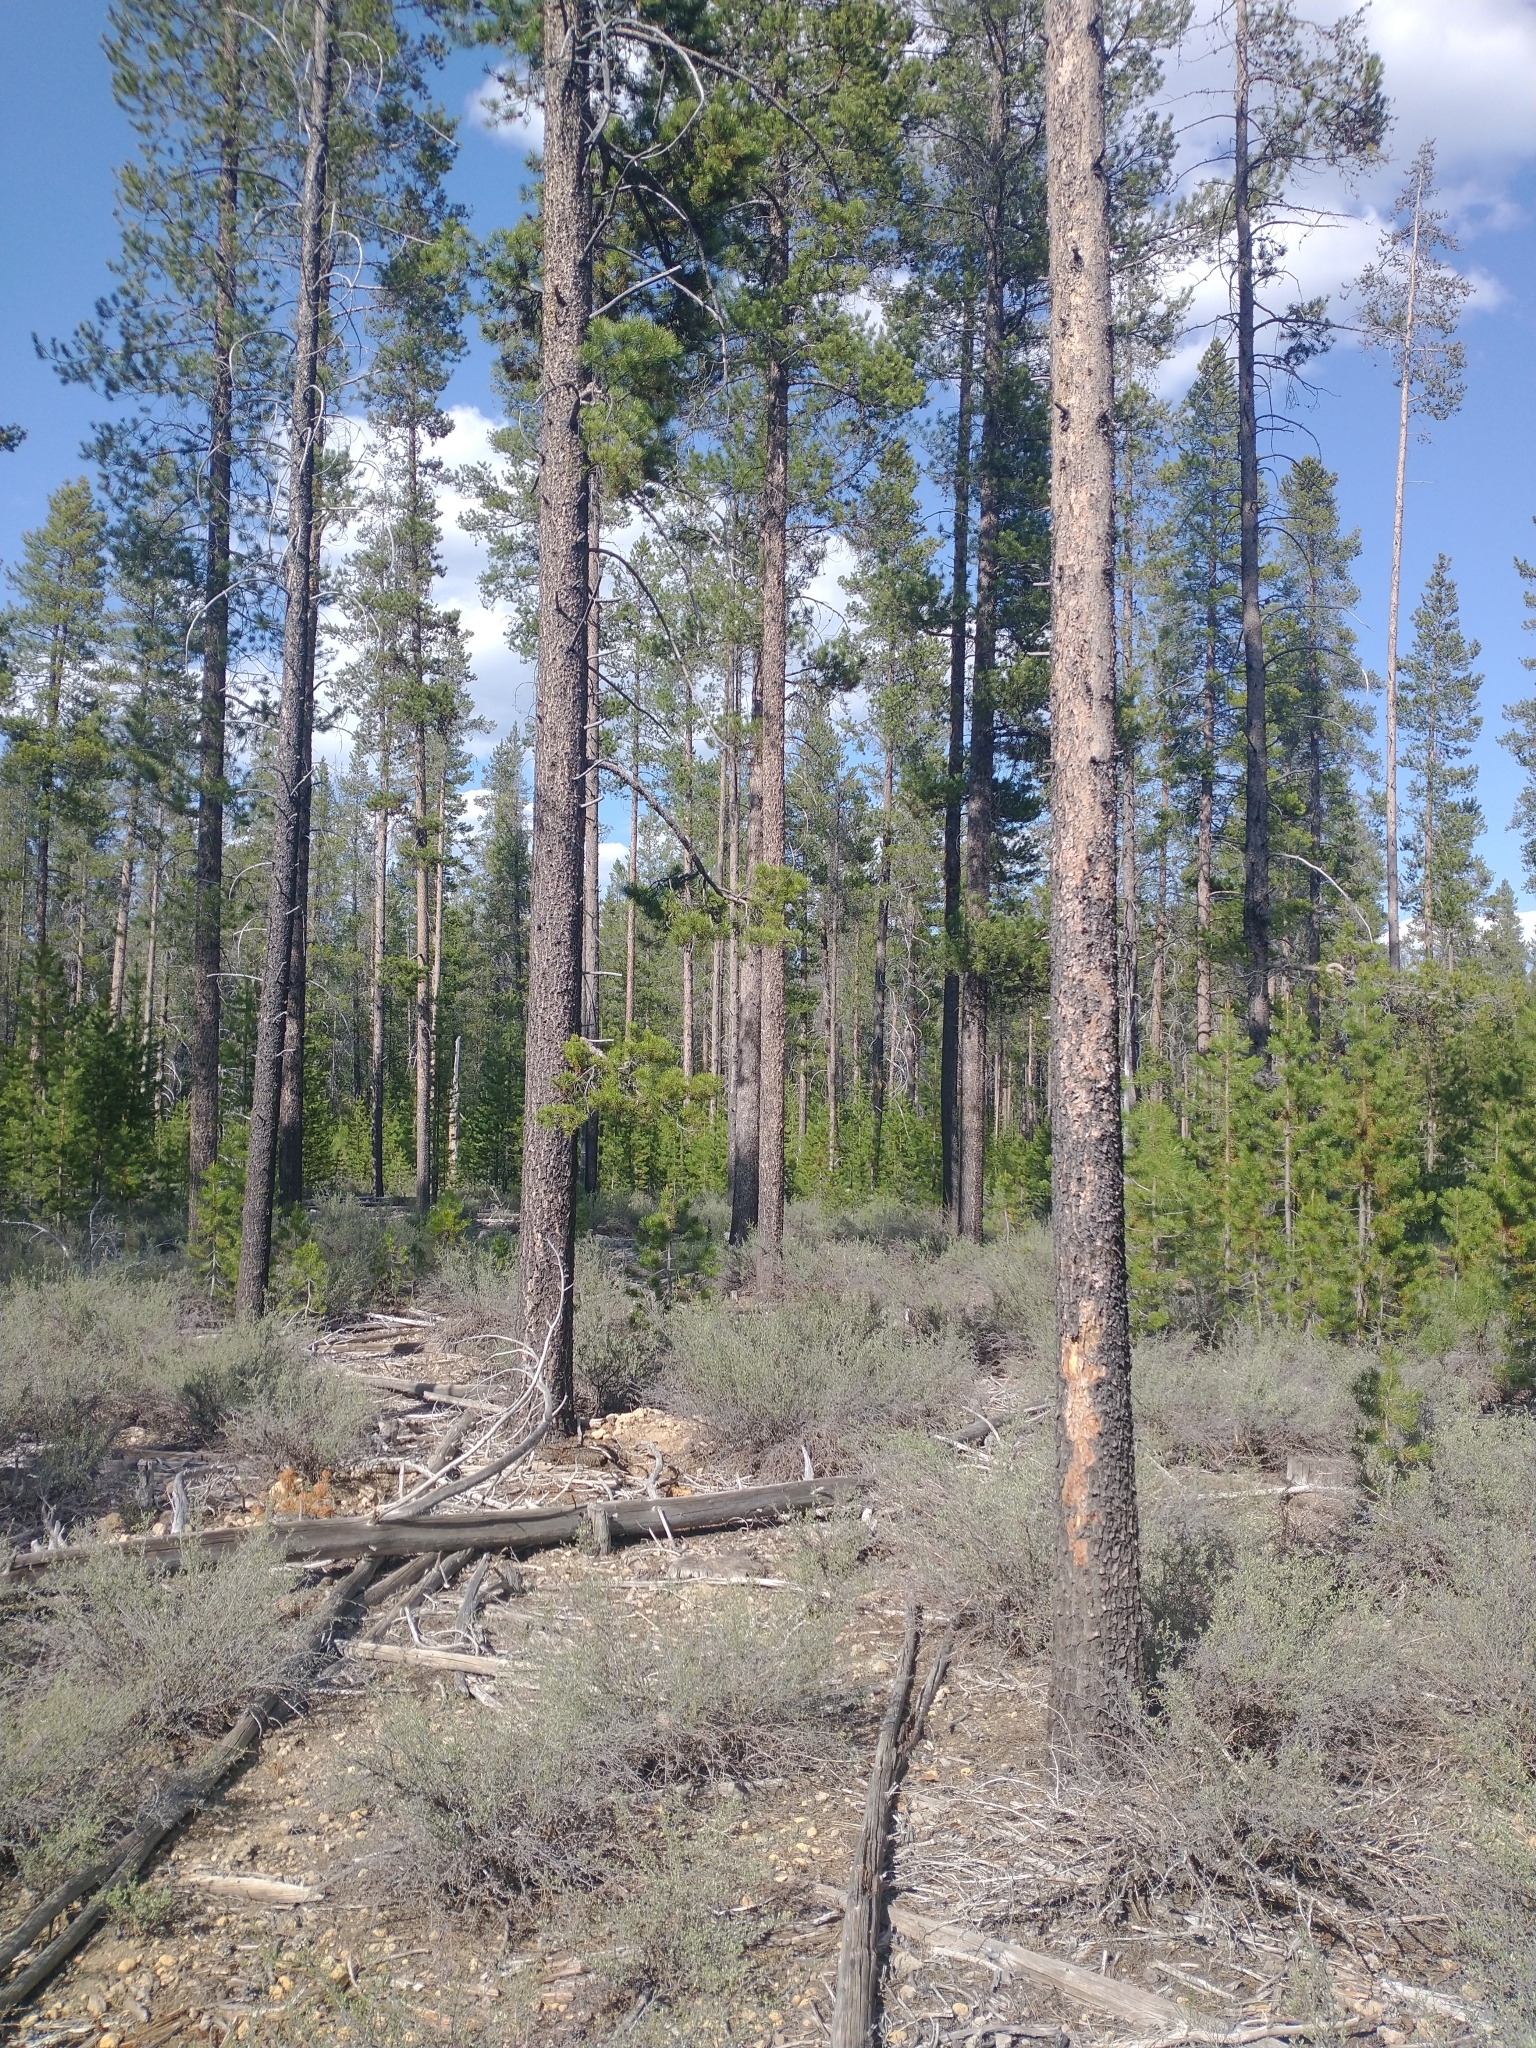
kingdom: Plantae
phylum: Tracheophyta
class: Pinopsida
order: Pinales
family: Pinaceae
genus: Pinus
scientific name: Pinus contorta
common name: Lodgepole pine
